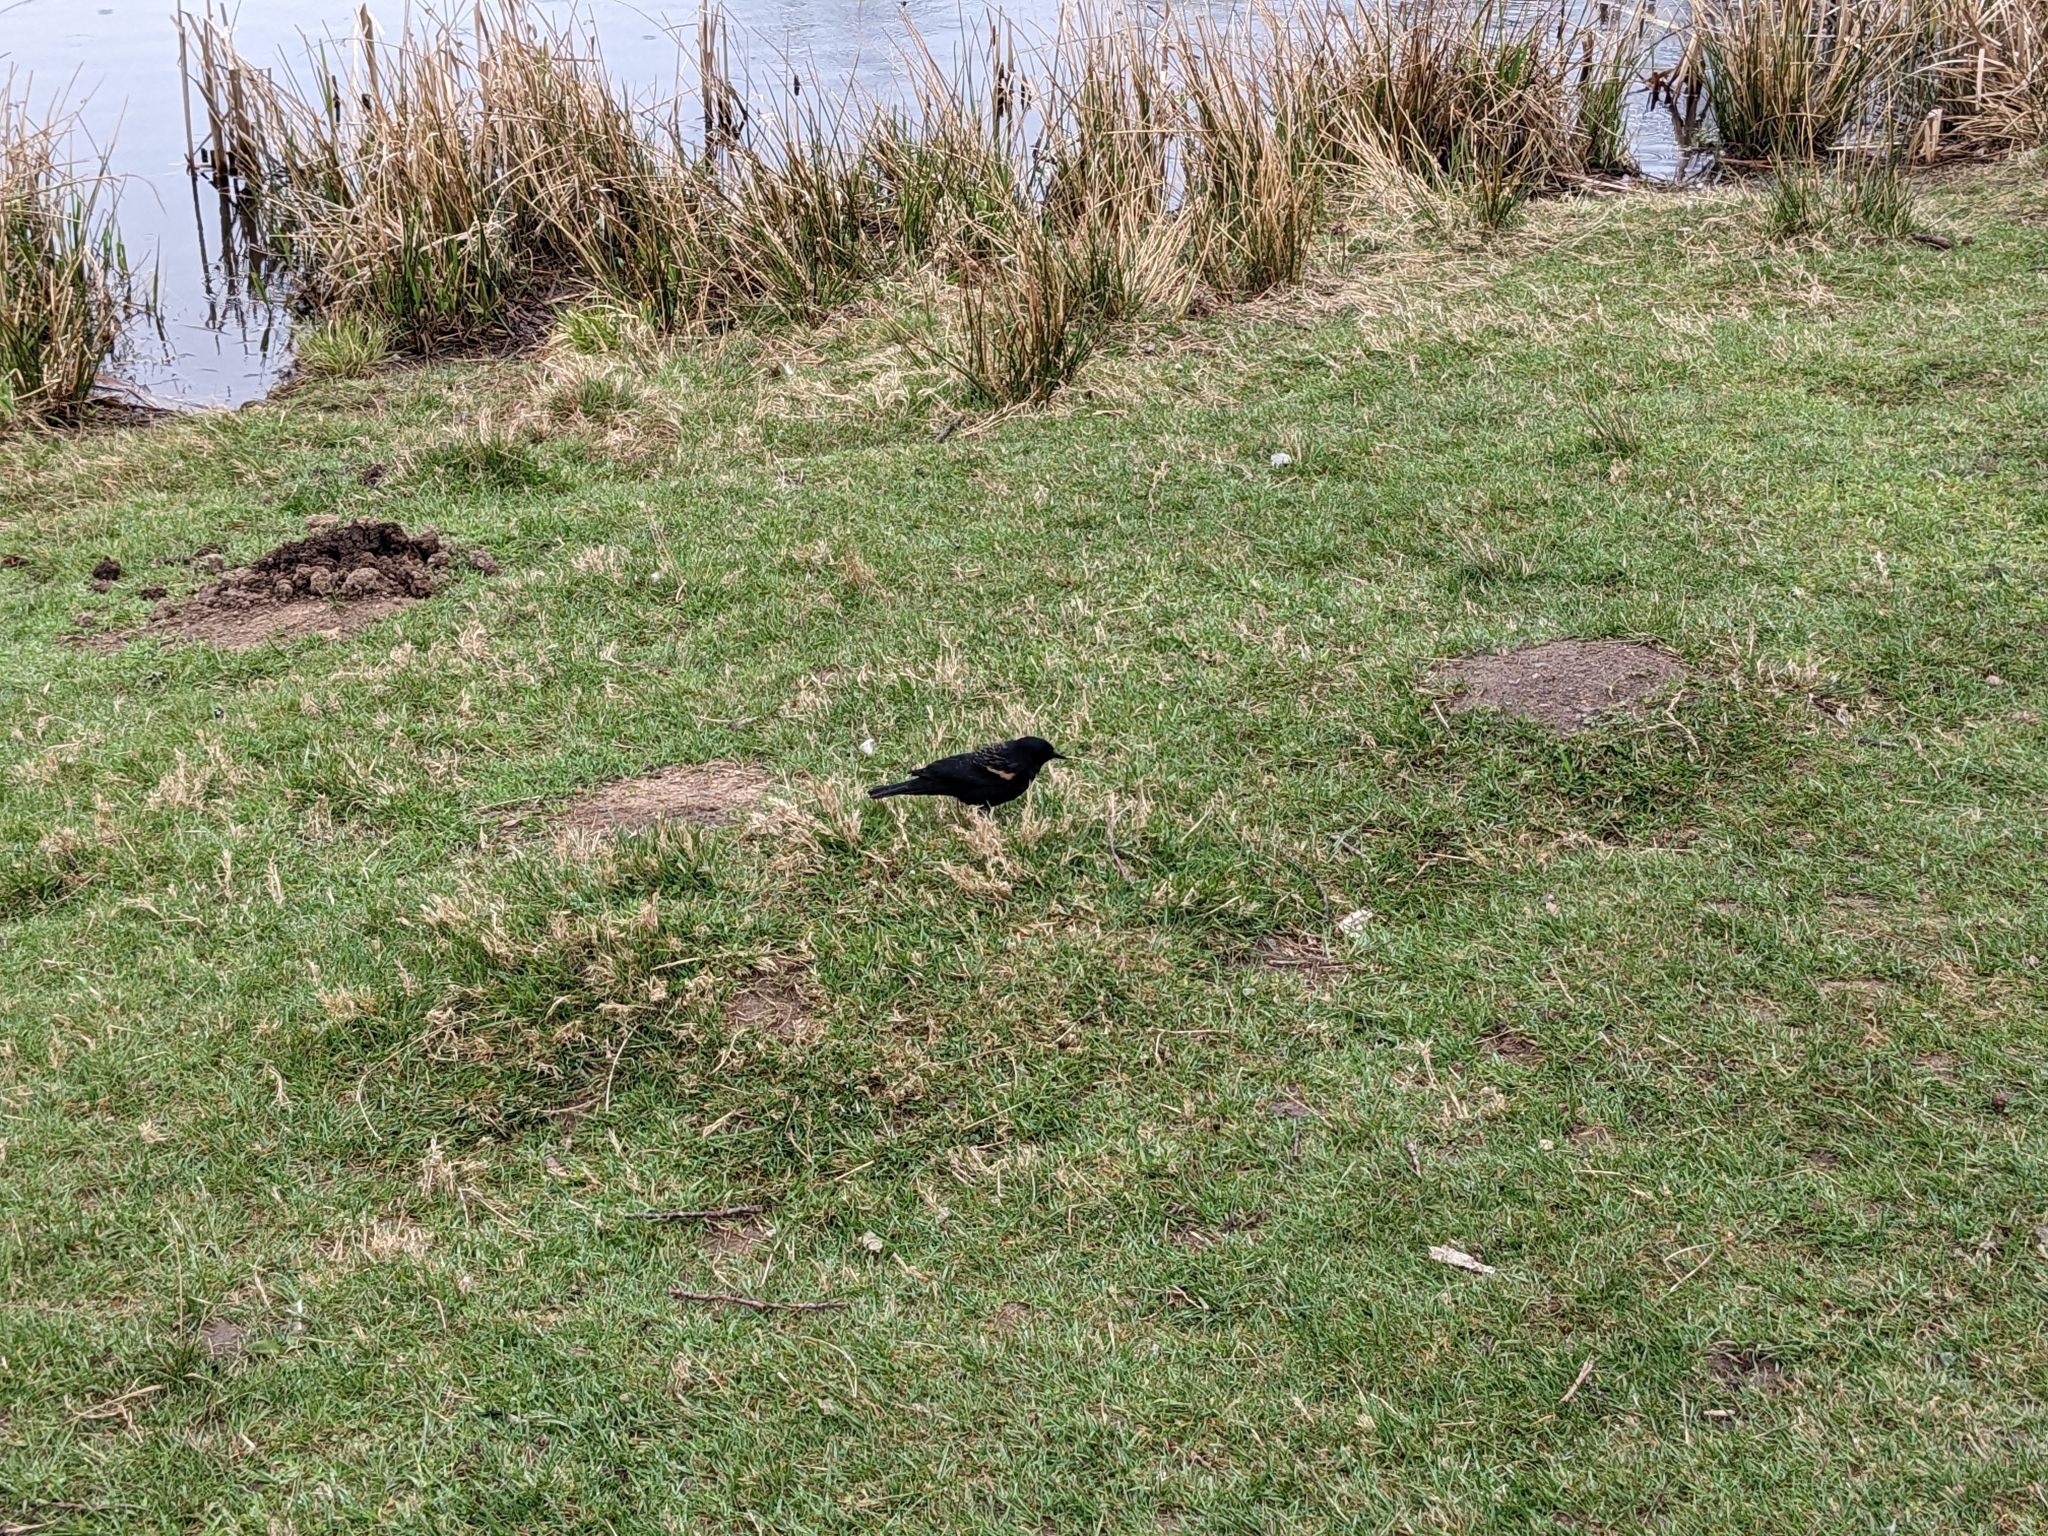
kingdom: Animalia
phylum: Chordata
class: Aves
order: Passeriformes
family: Icteridae
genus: Agelaius
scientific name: Agelaius phoeniceus
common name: Red-winged blackbird
